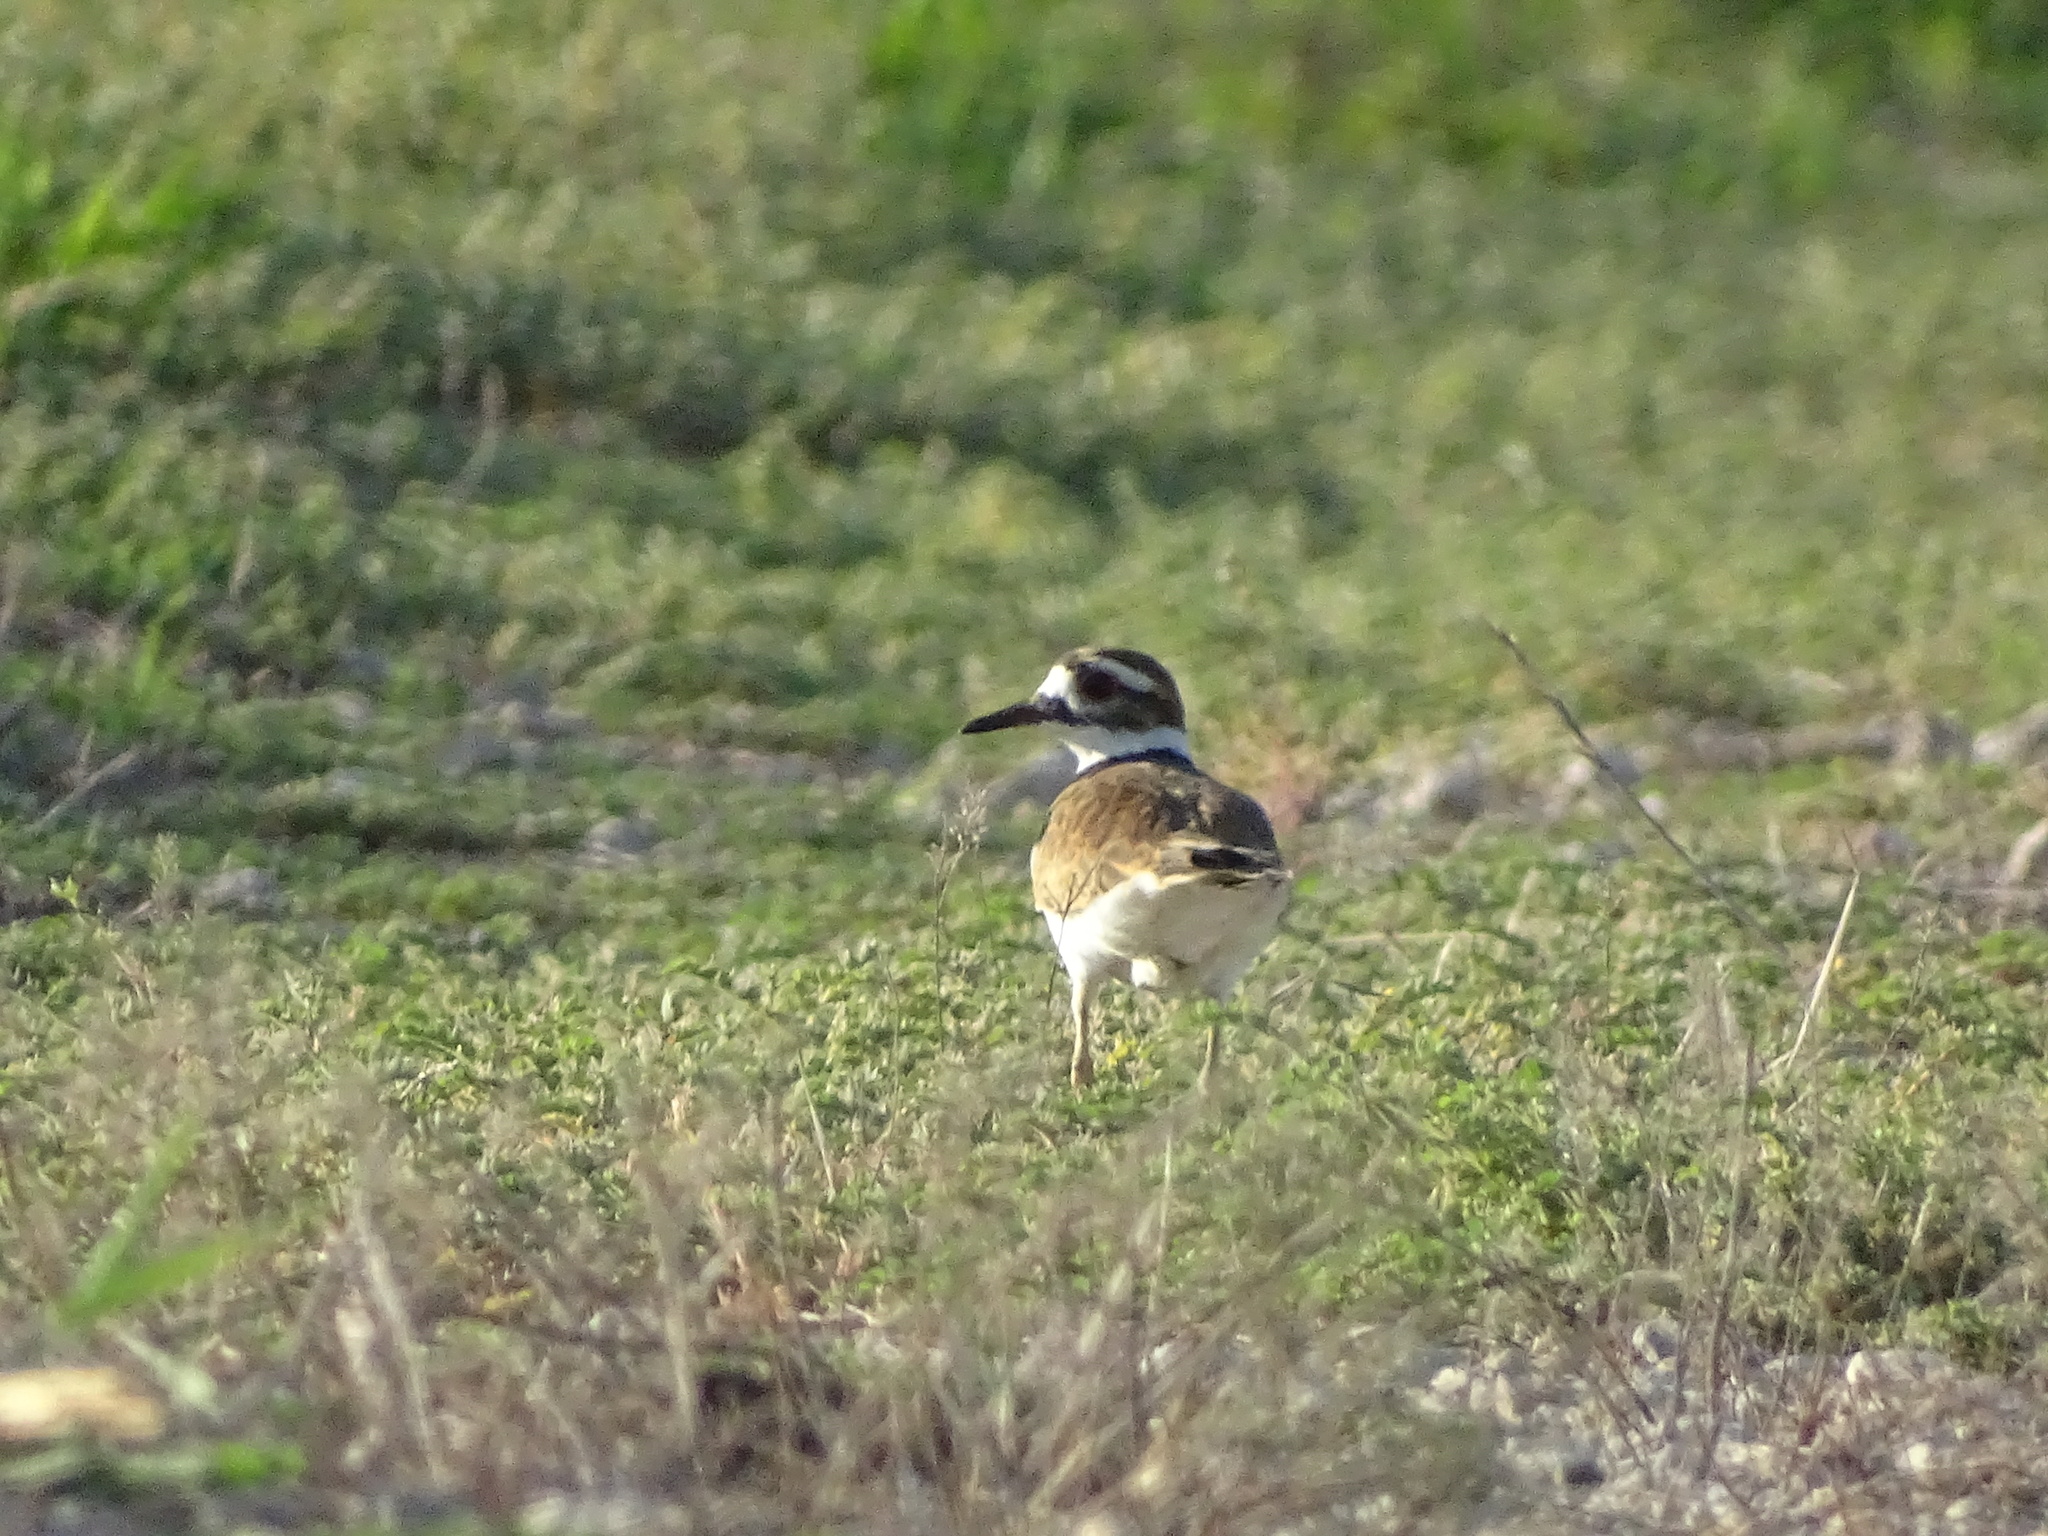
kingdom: Animalia
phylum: Chordata
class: Aves
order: Charadriiformes
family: Charadriidae
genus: Charadrius
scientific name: Charadrius vociferus
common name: Killdeer
